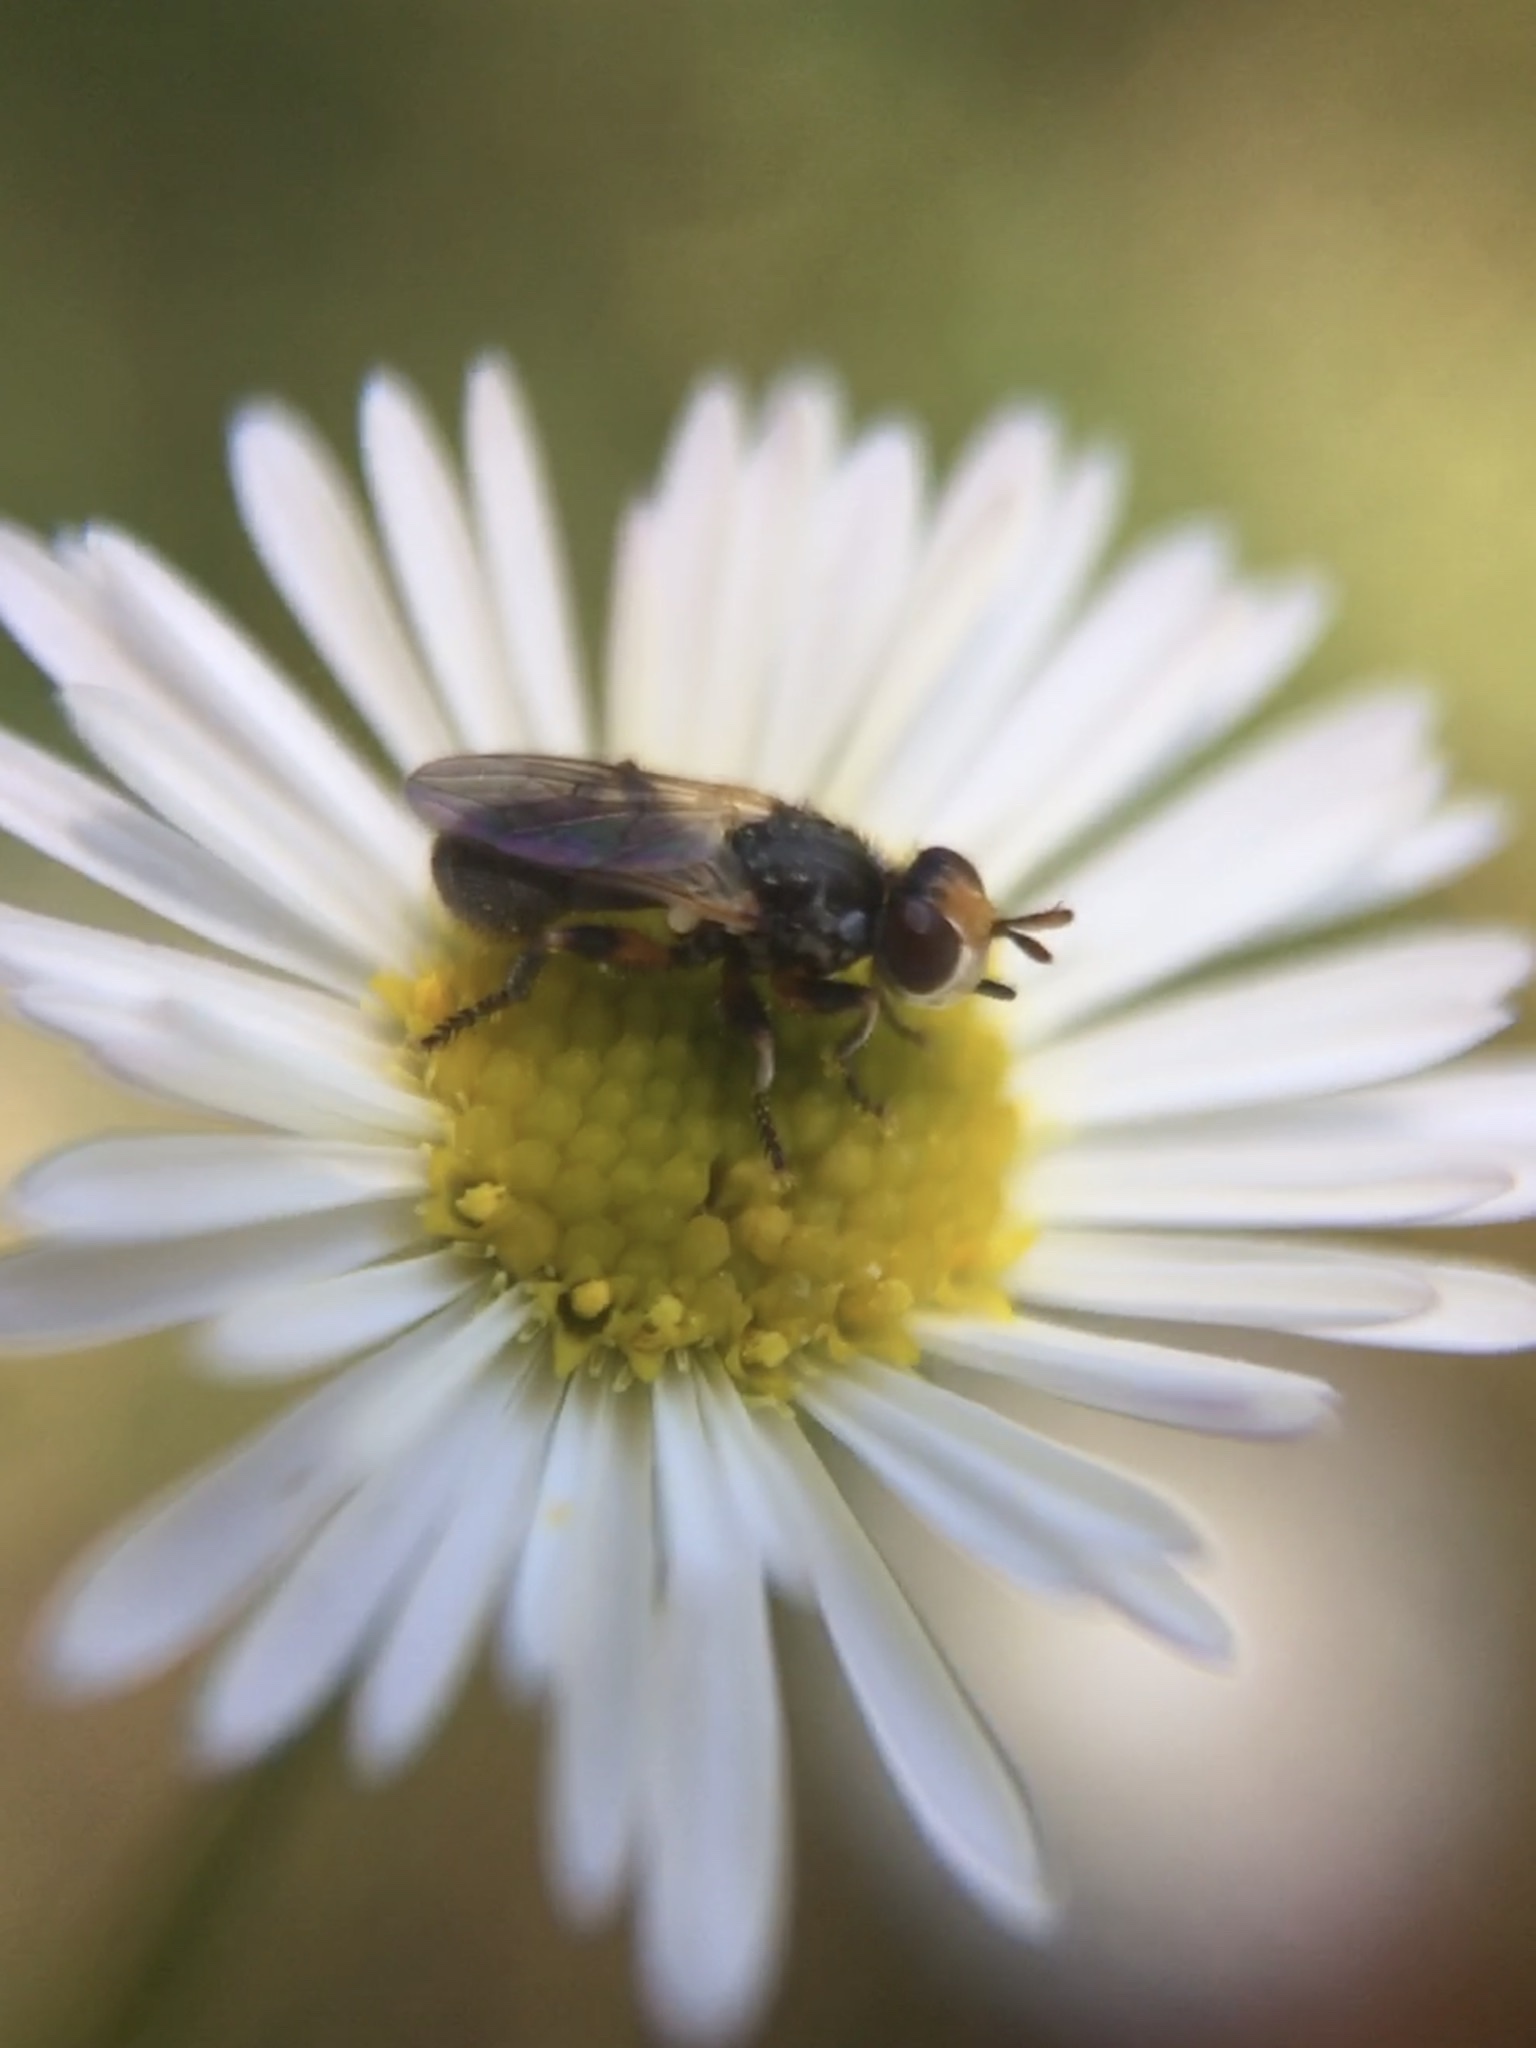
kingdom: Animalia
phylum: Arthropoda
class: Insecta
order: Diptera
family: Conopidae
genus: Thecophora
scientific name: Thecophora occidensis
